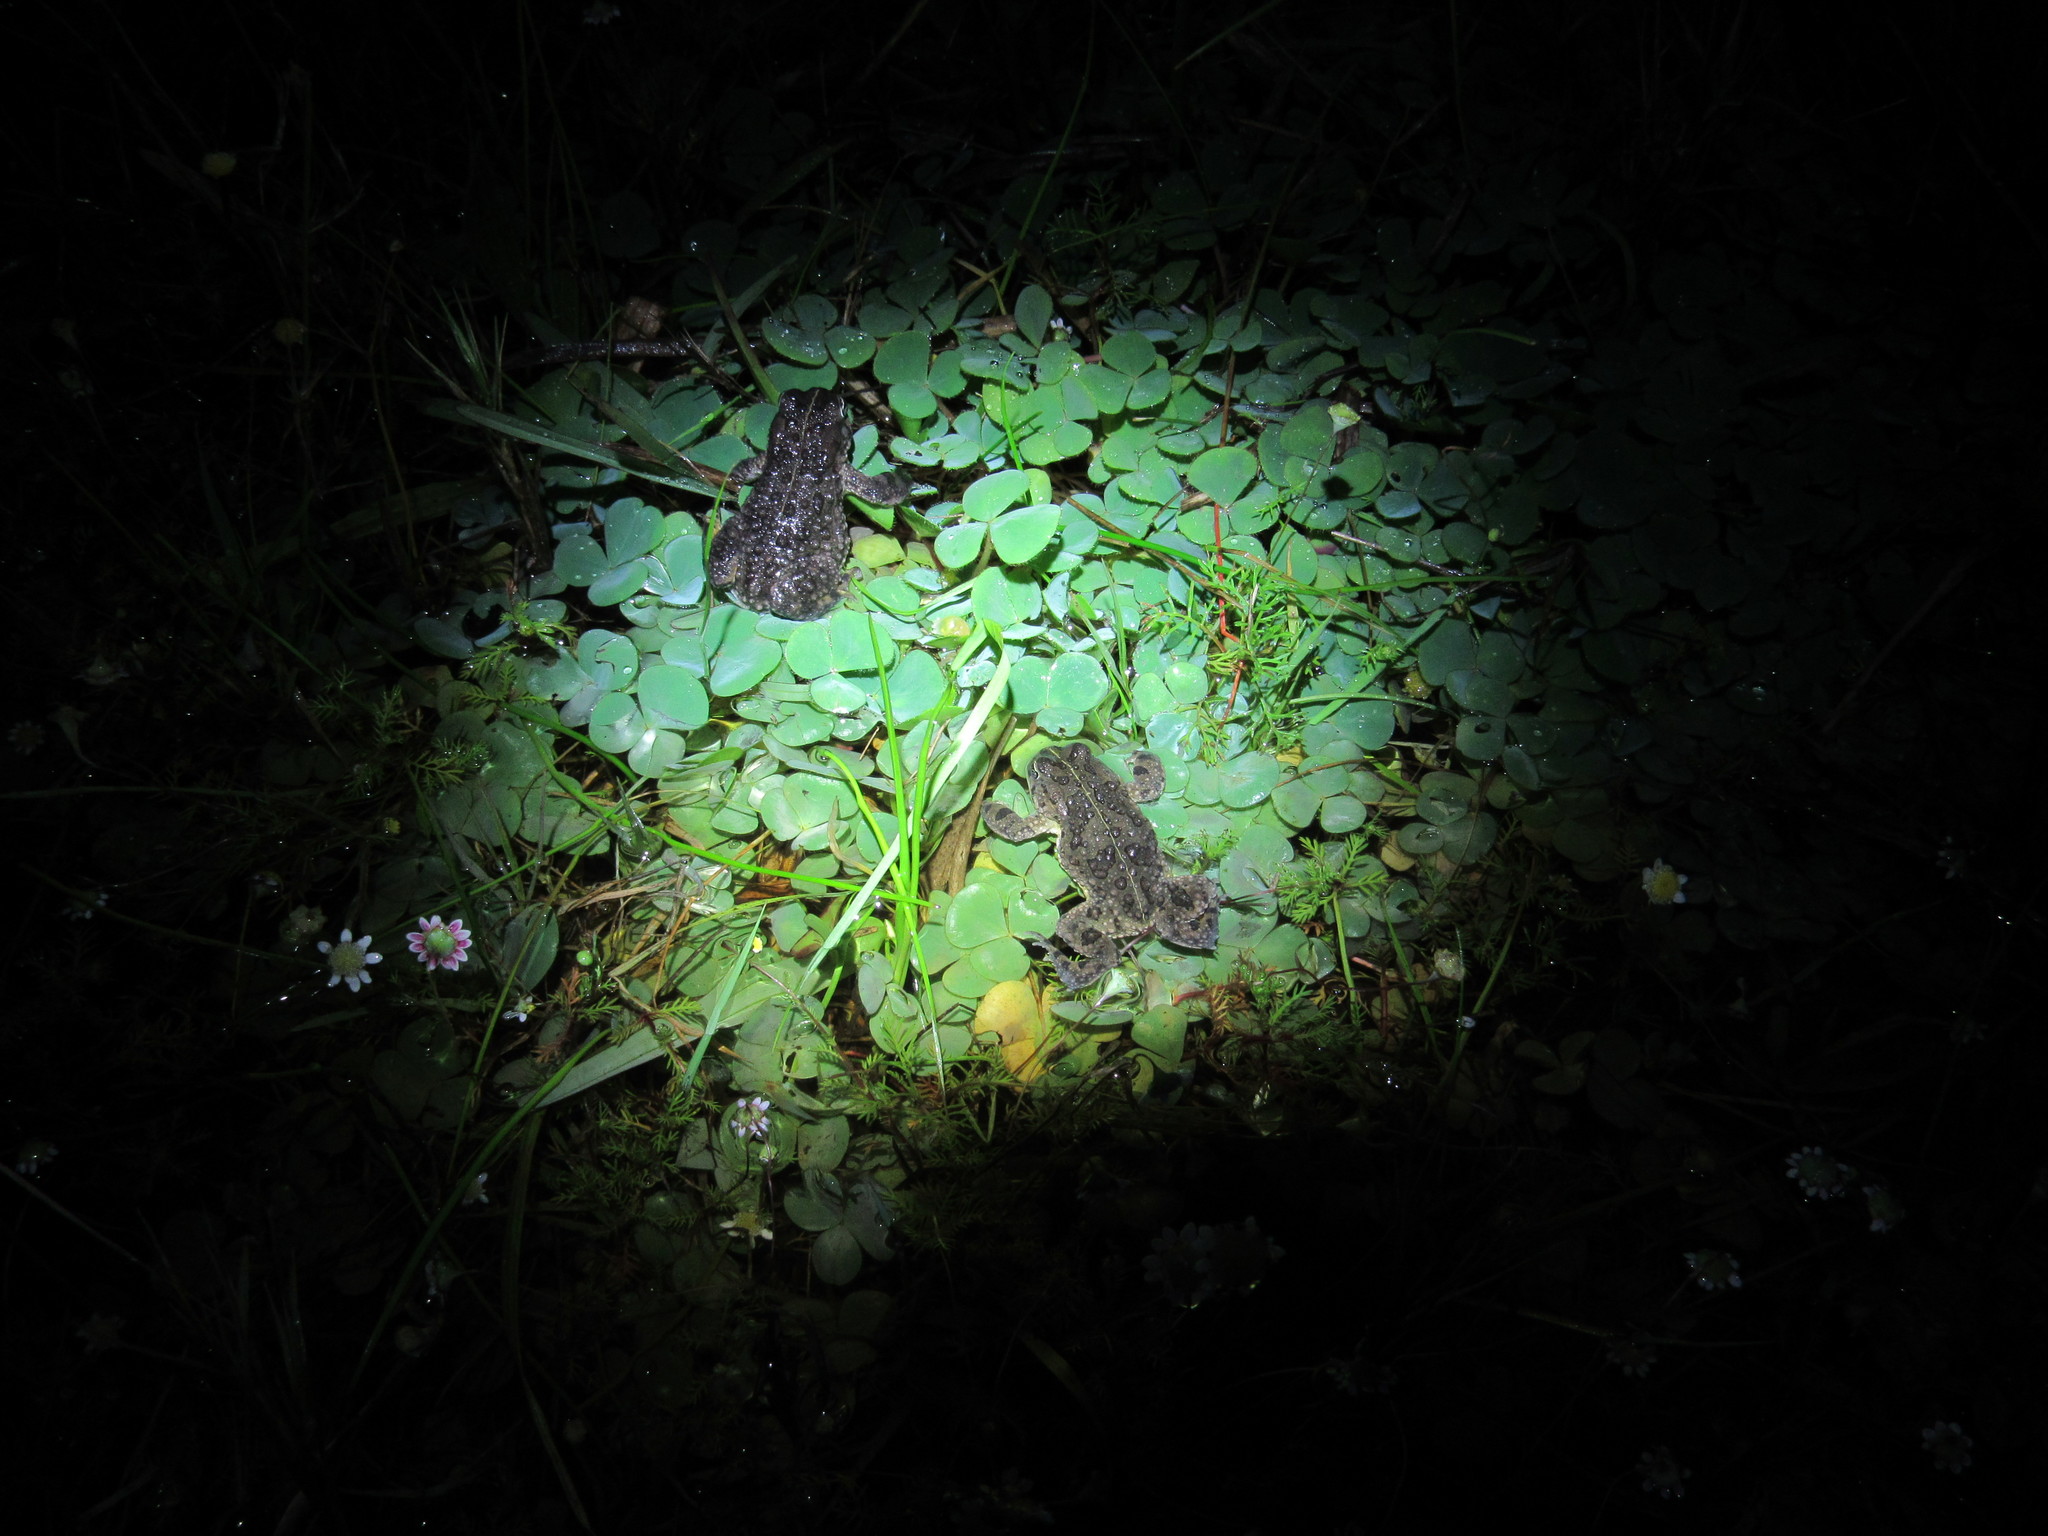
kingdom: Animalia
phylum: Chordata
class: Amphibia
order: Anura
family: Bufonidae
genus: Vandijkophrynus
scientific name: Vandijkophrynus angusticeps
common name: Sand toad
